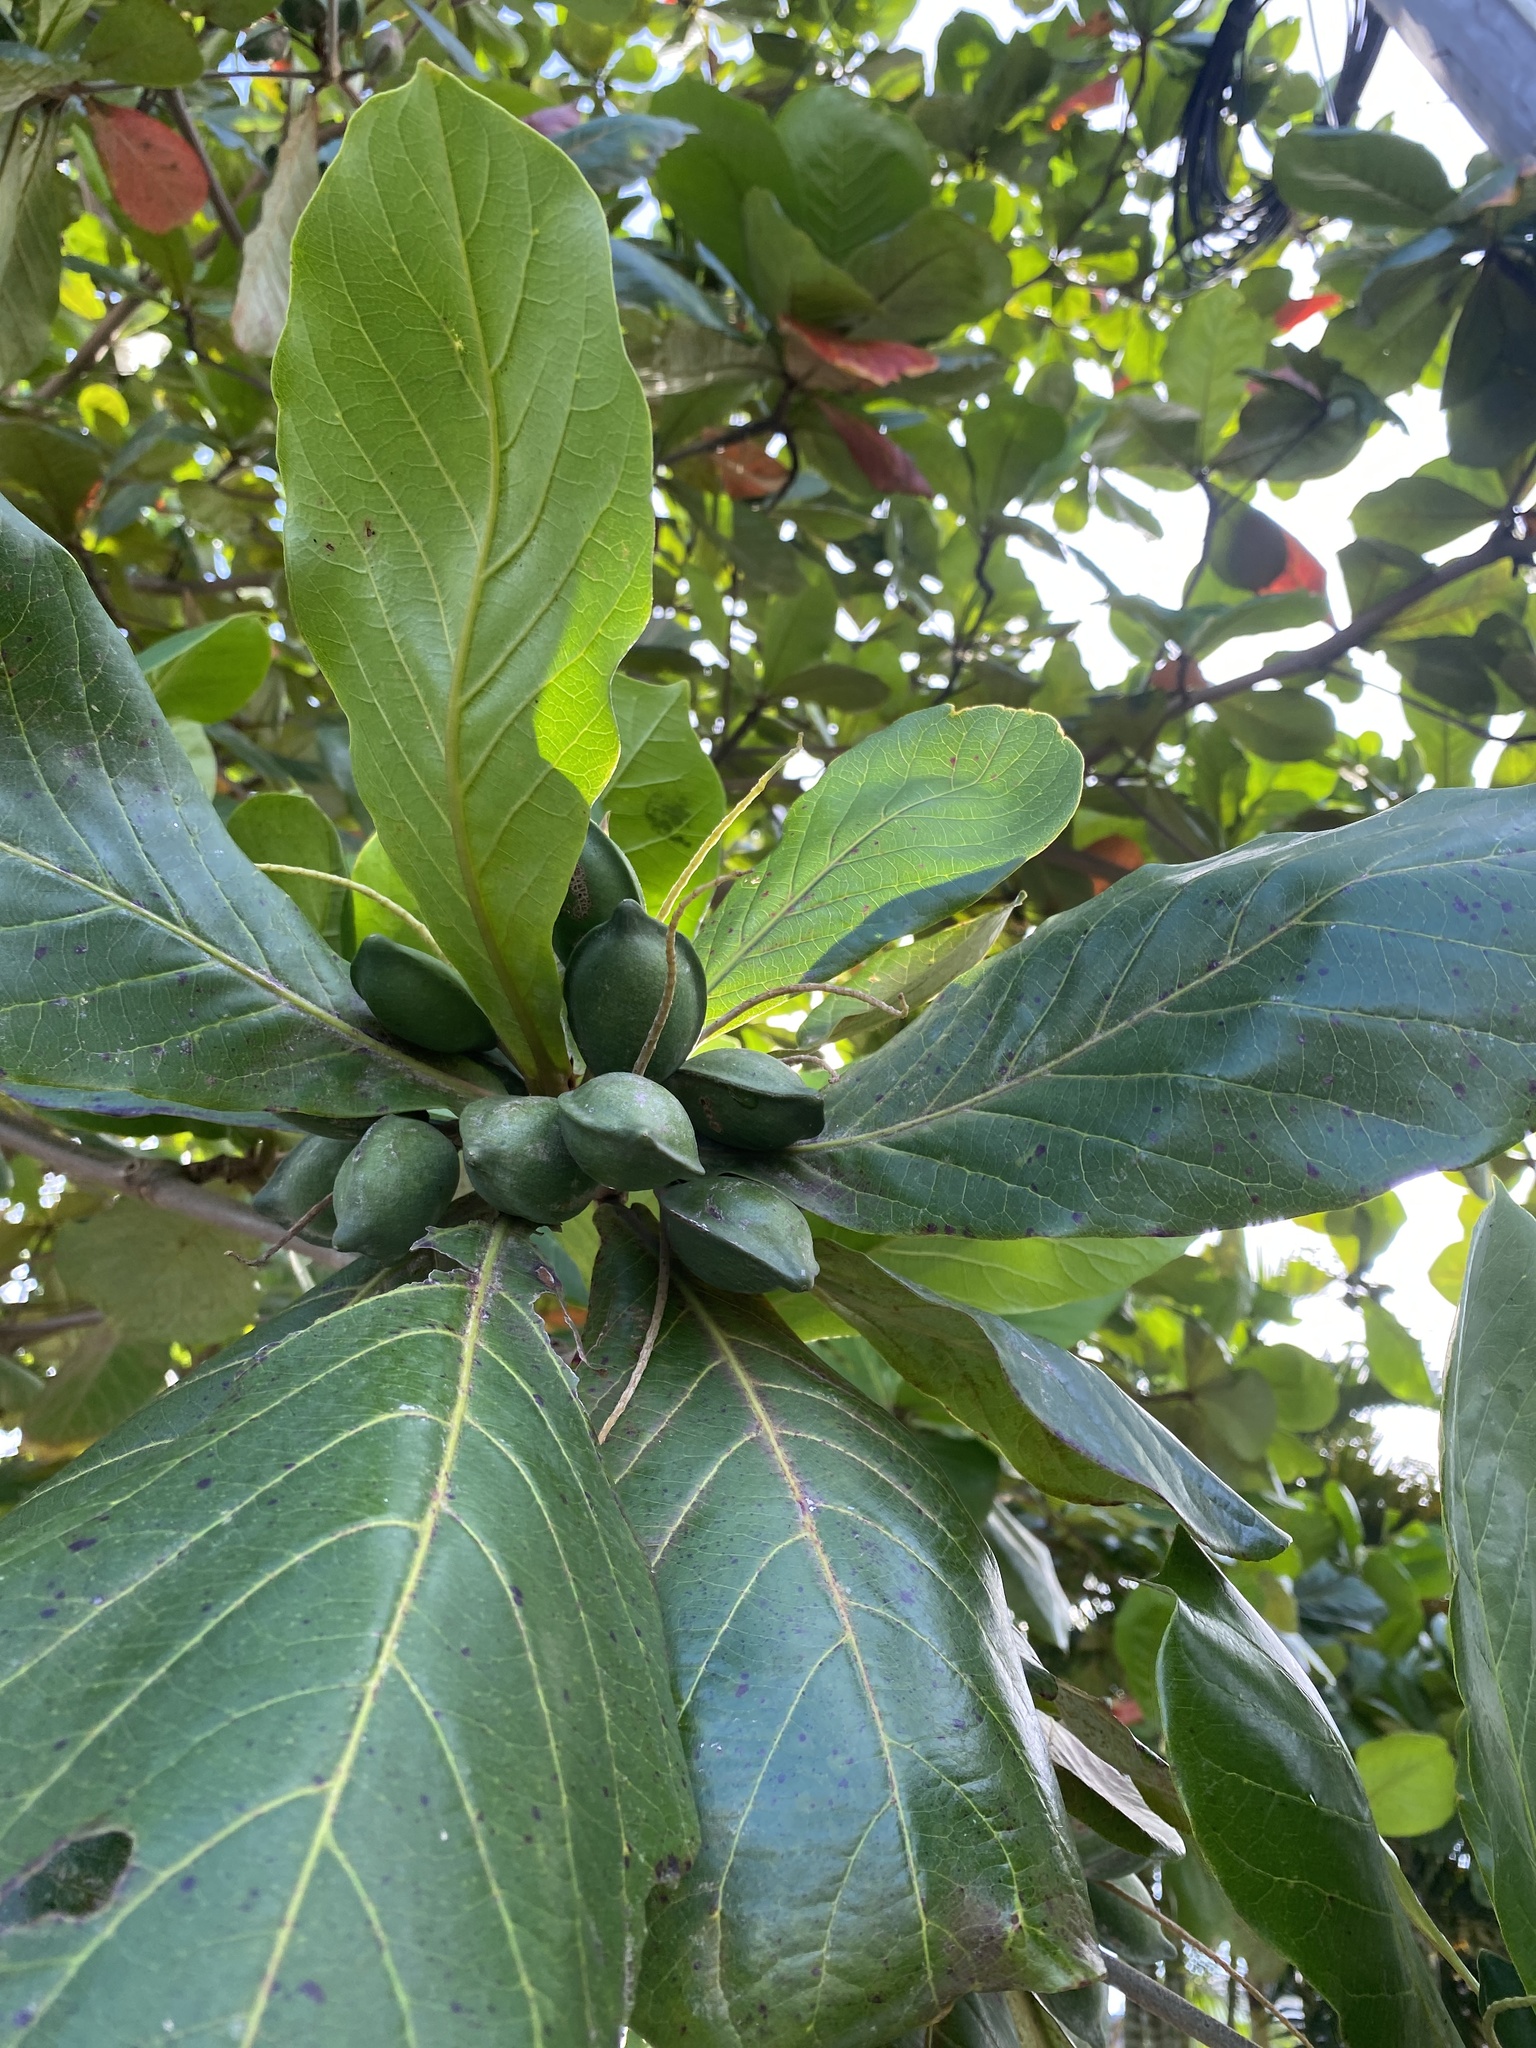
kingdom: Plantae
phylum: Tracheophyta
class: Magnoliopsida
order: Myrtales
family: Combretaceae
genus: Terminalia
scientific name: Terminalia catappa
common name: Tropical almond
